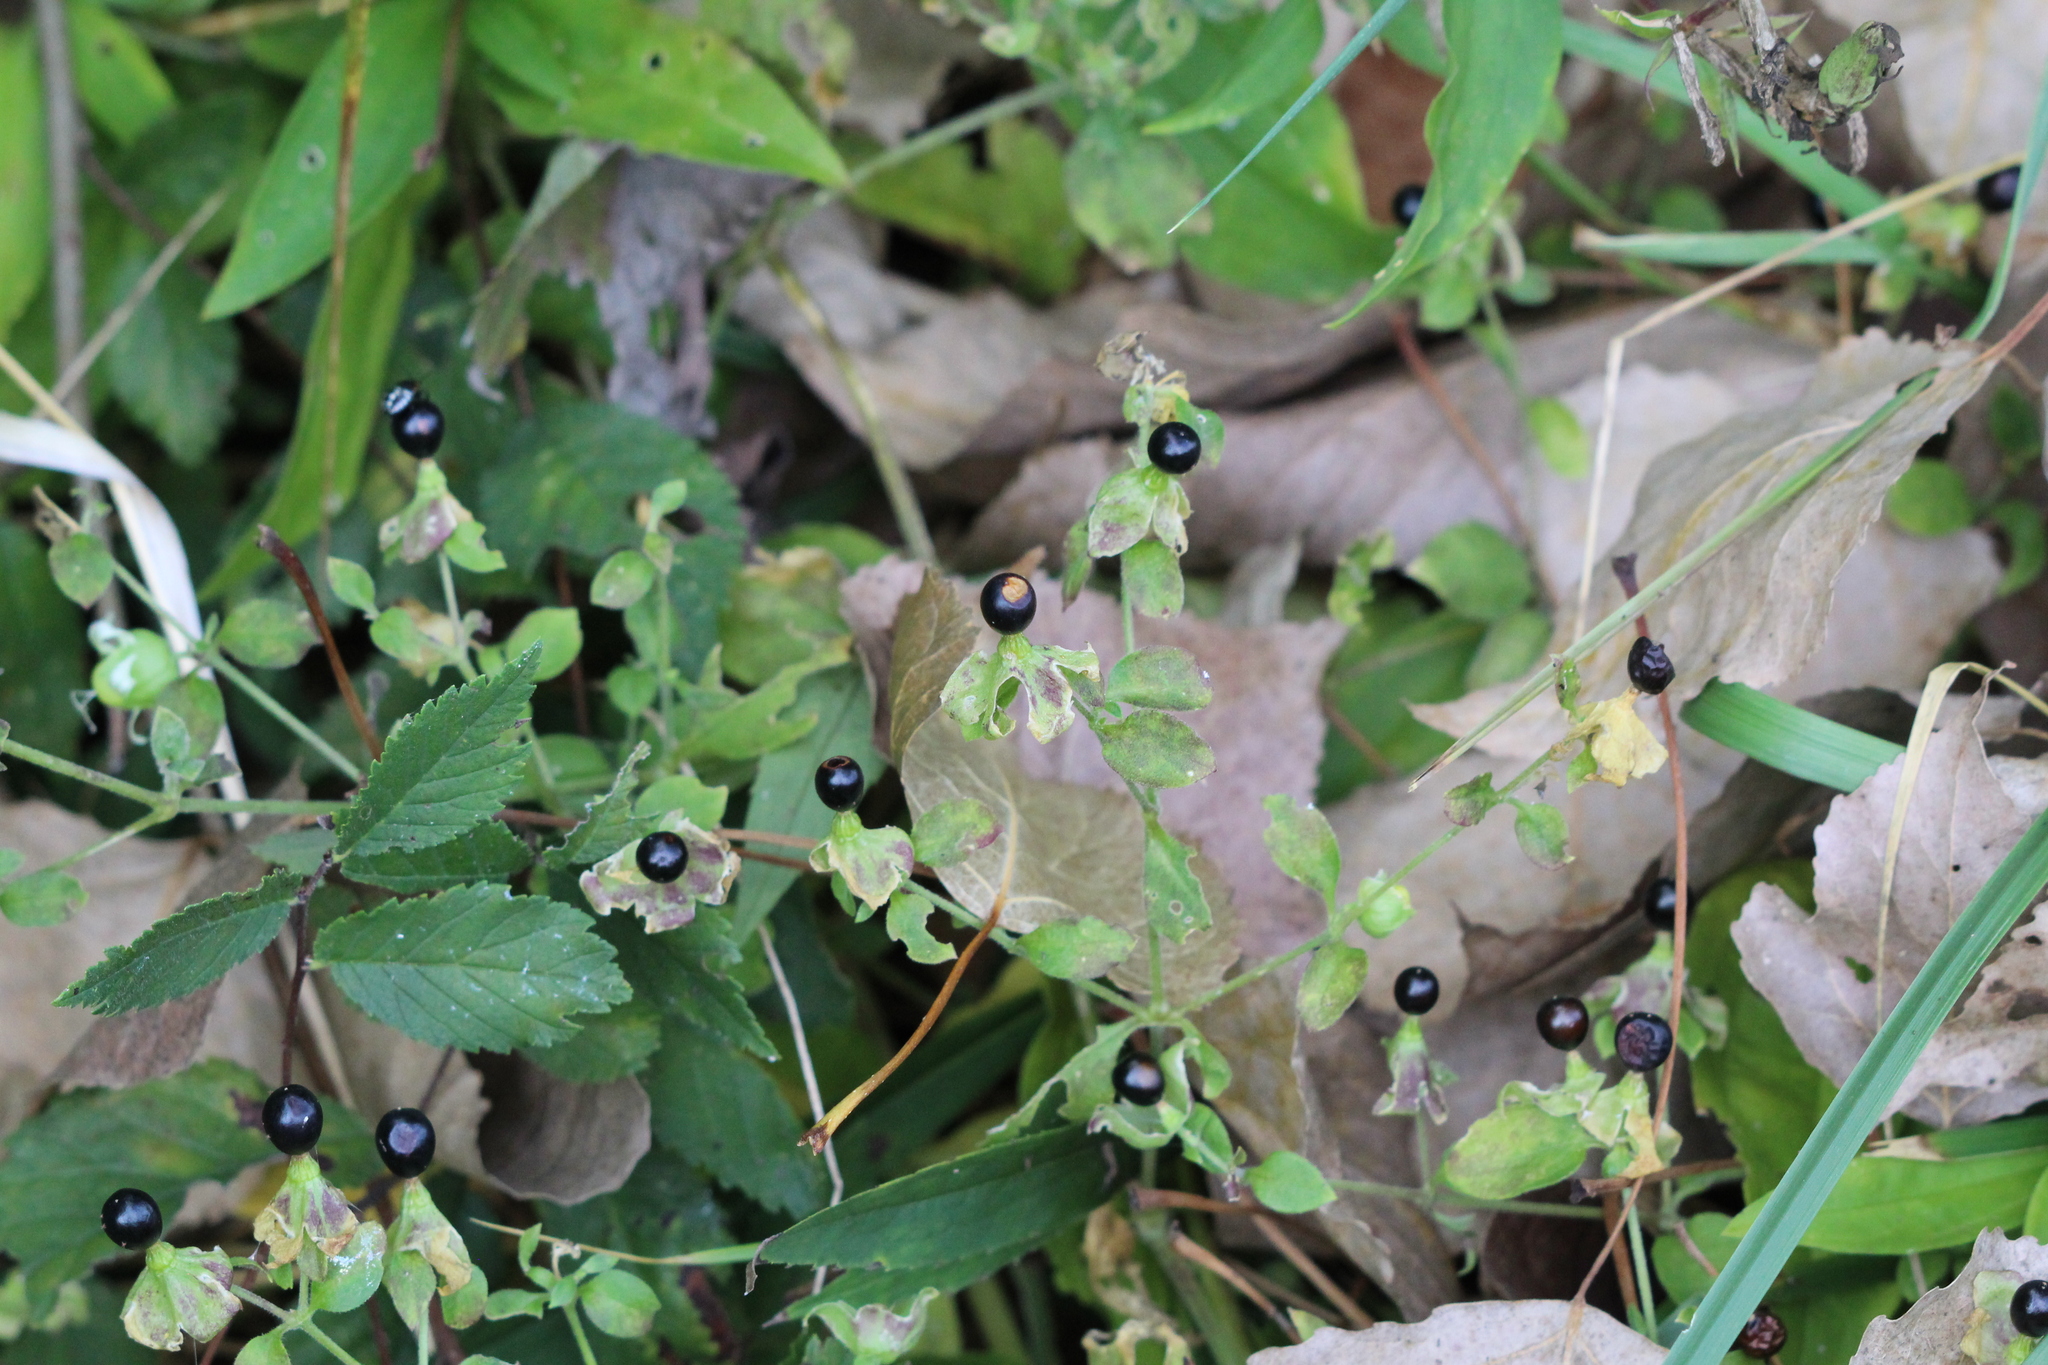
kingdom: Plantae
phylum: Tracheophyta
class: Magnoliopsida
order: Caryophyllales
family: Caryophyllaceae
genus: Silene
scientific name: Silene baccifera
